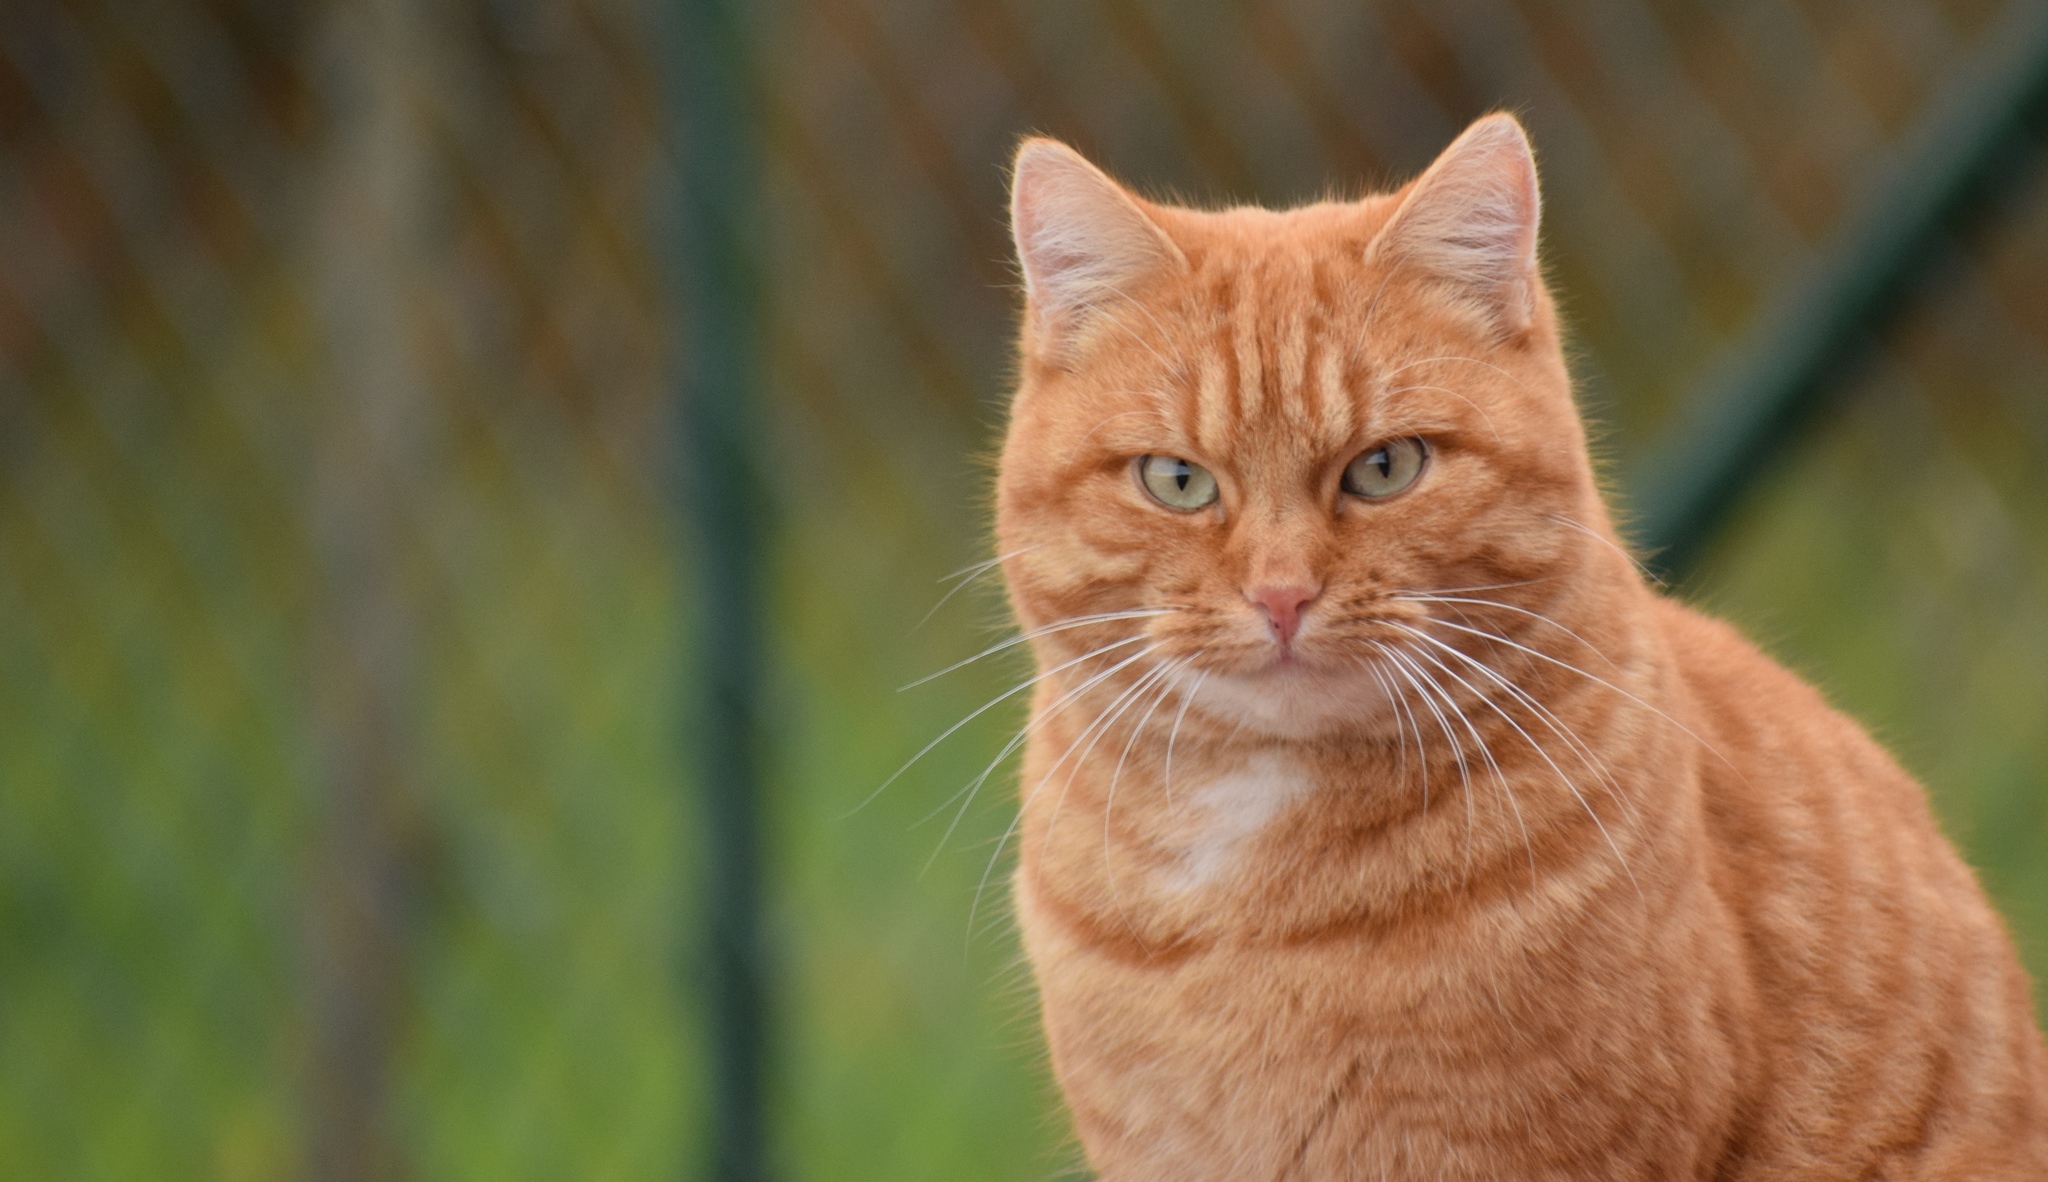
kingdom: Animalia
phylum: Chordata
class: Mammalia
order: Carnivora
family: Felidae
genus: Felis
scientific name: Felis catus
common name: Domestic cat
